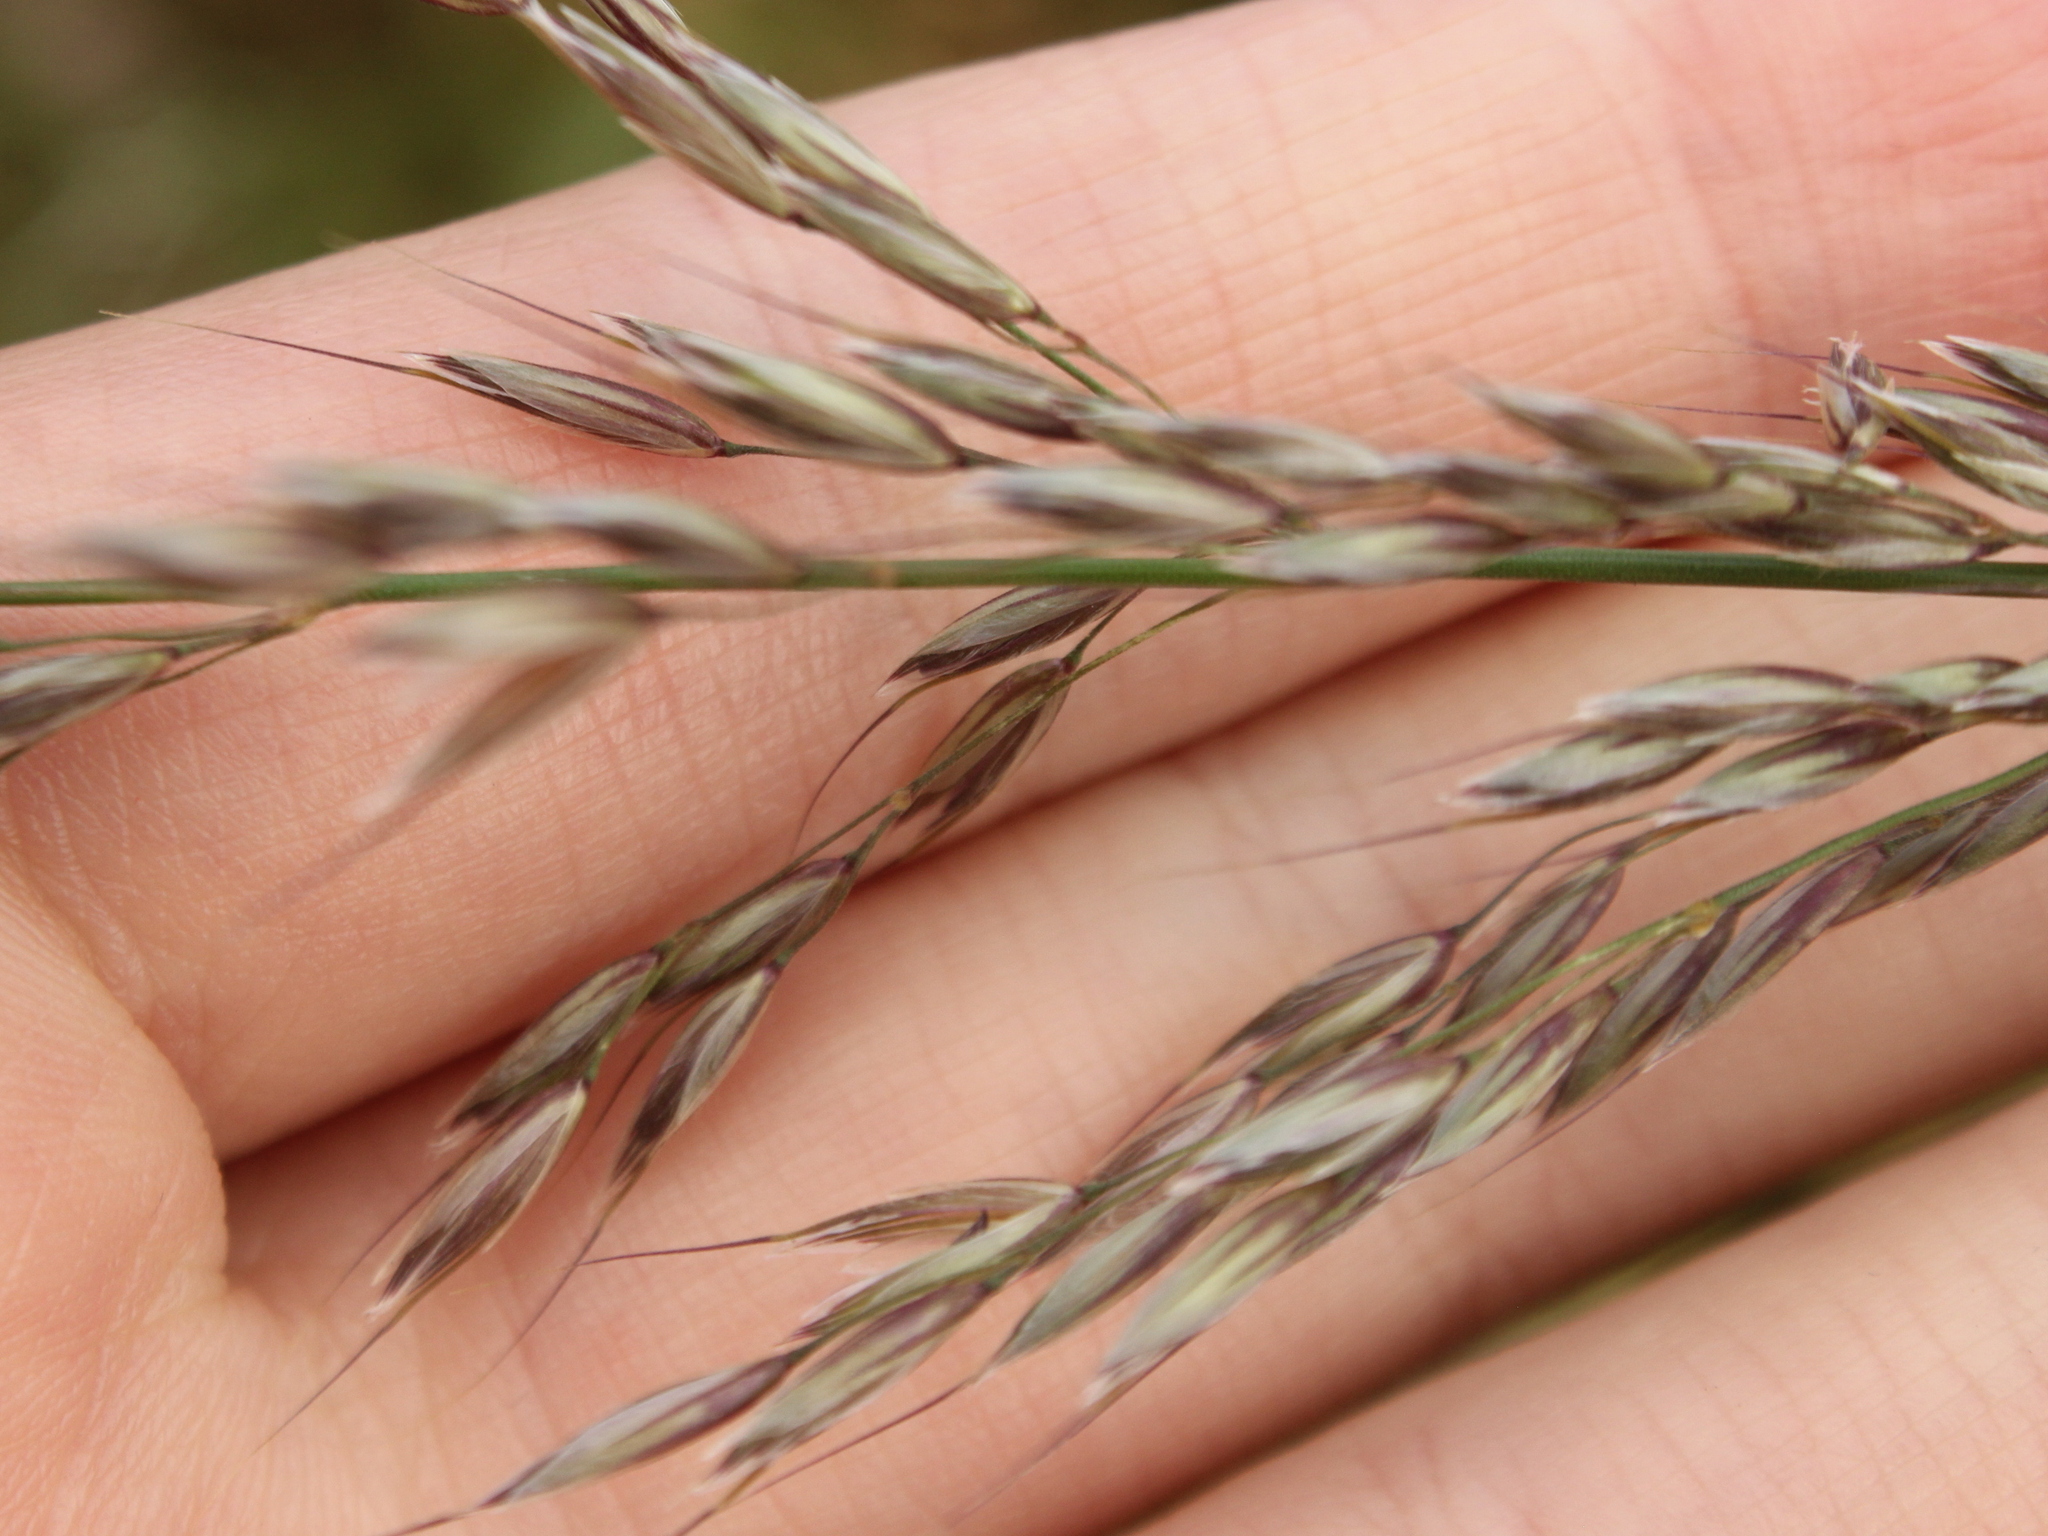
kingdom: Plantae
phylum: Tracheophyta
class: Liliopsida
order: Poales
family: Poaceae
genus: Arrhenatherum
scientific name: Arrhenatherum elatius
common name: Tall oatgrass
